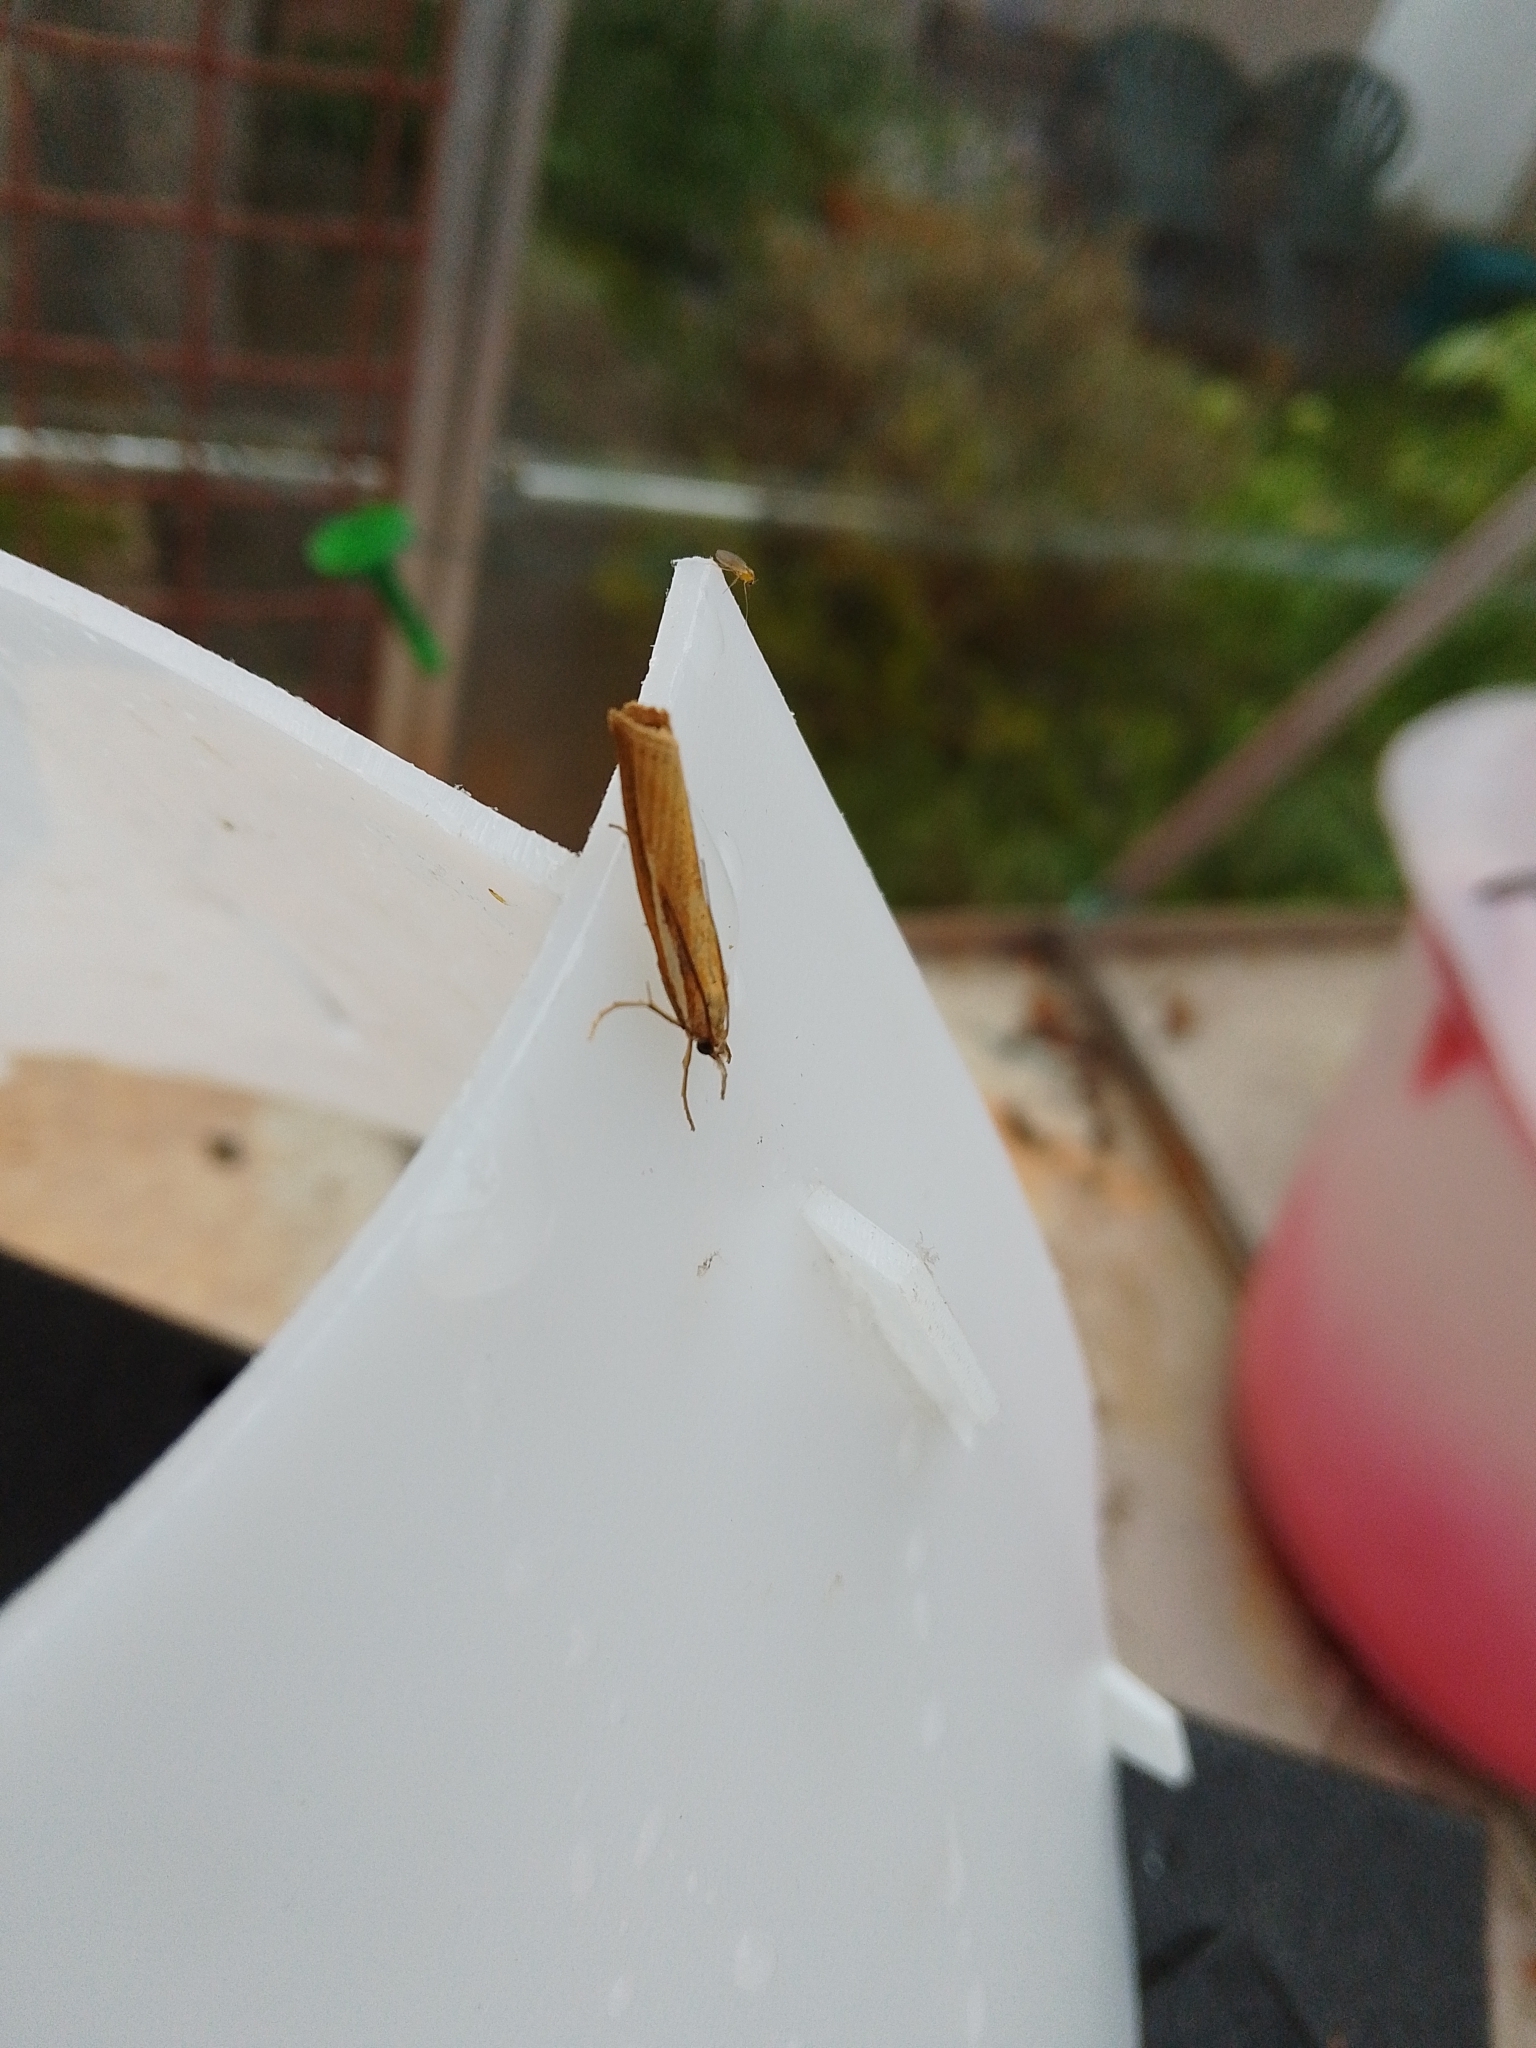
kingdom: Animalia
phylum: Arthropoda
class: Insecta
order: Lepidoptera
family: Crambidae
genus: Agriphila
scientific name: Agriphila tristellus
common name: Common grass-veneer
